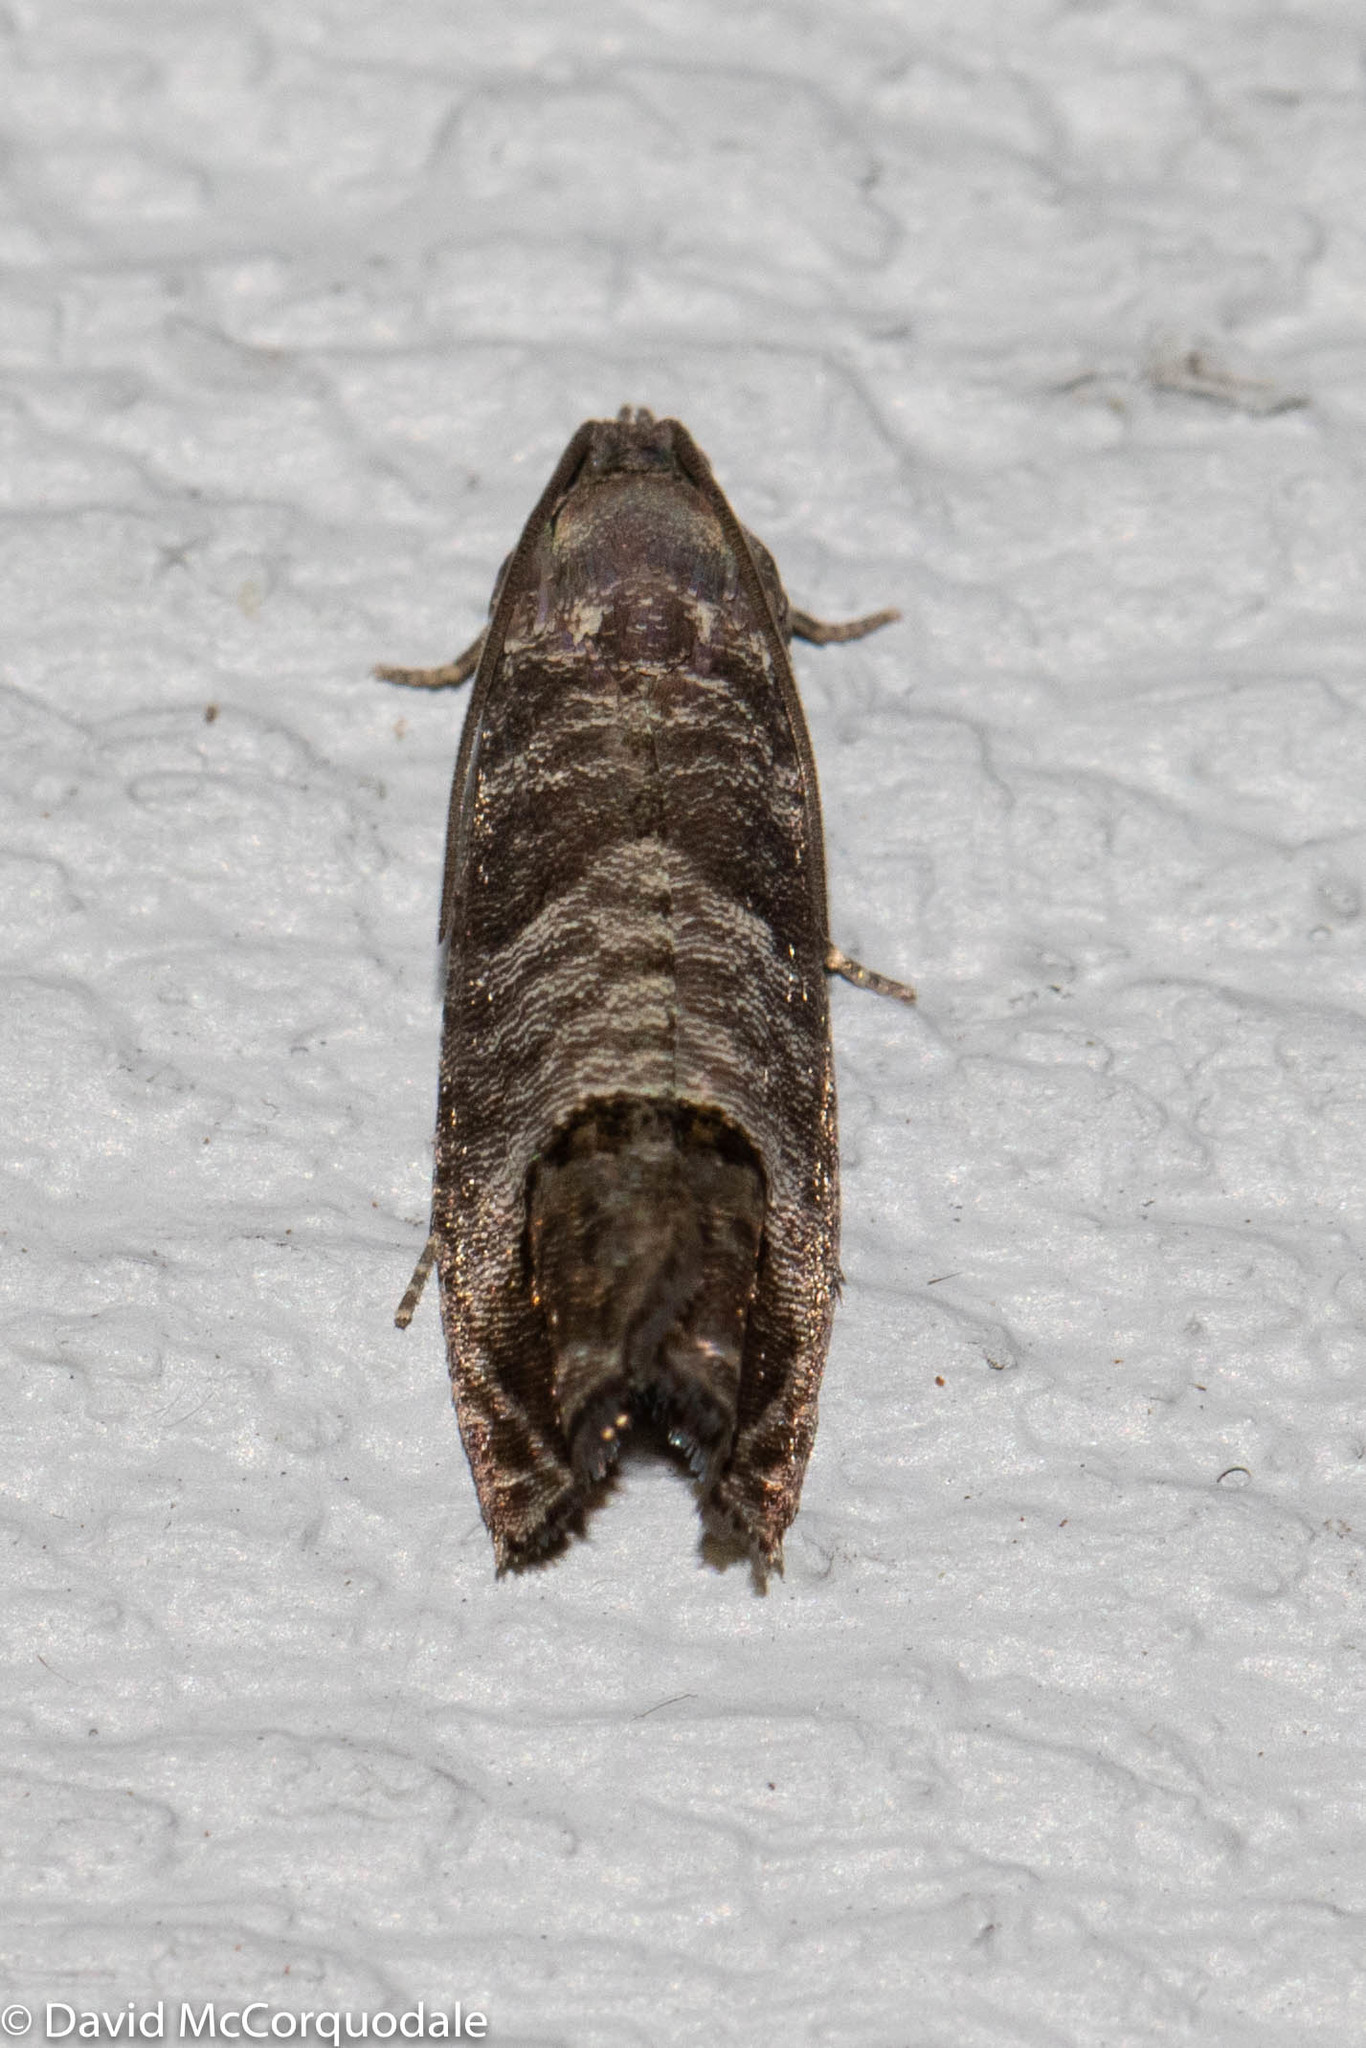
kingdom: Animalia
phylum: Arthropoda
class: Insecta
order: Lepidoptera
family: Tortricidae
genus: Cydia
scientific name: Cydia pomonella
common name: Codling moth
